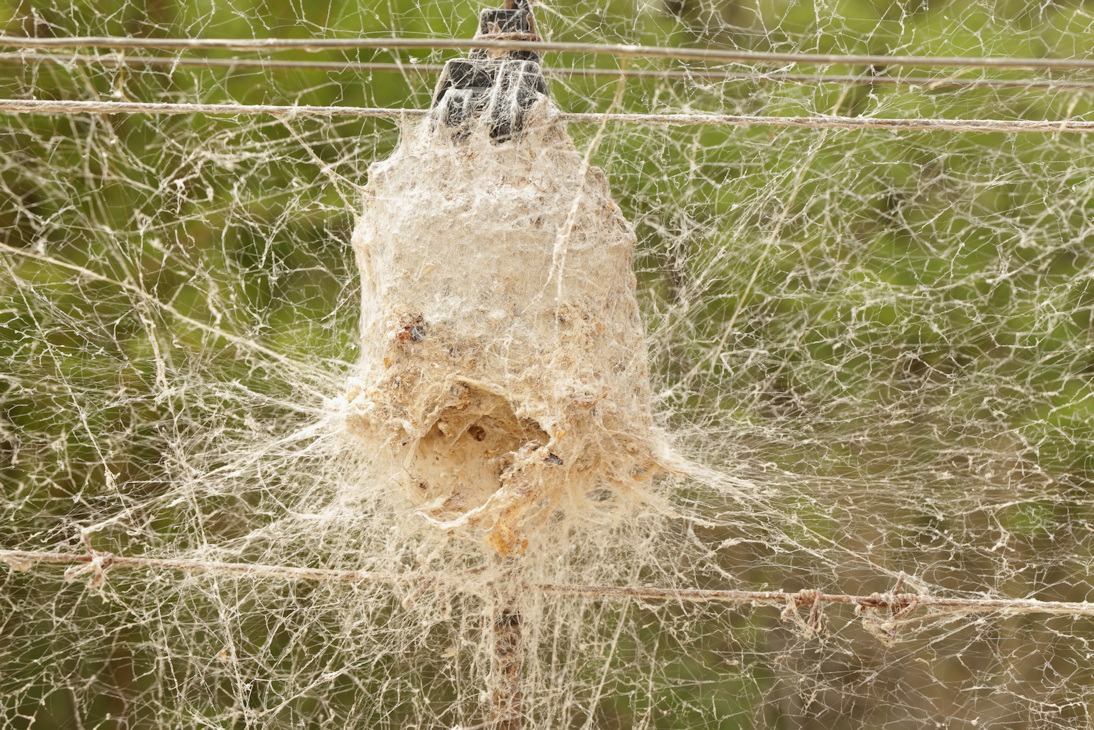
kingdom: Animalia
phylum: Arthropoda
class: Arachnida
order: Araneae
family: Eresidae
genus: Stegodyphus
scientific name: Stegodyphus dumicola
